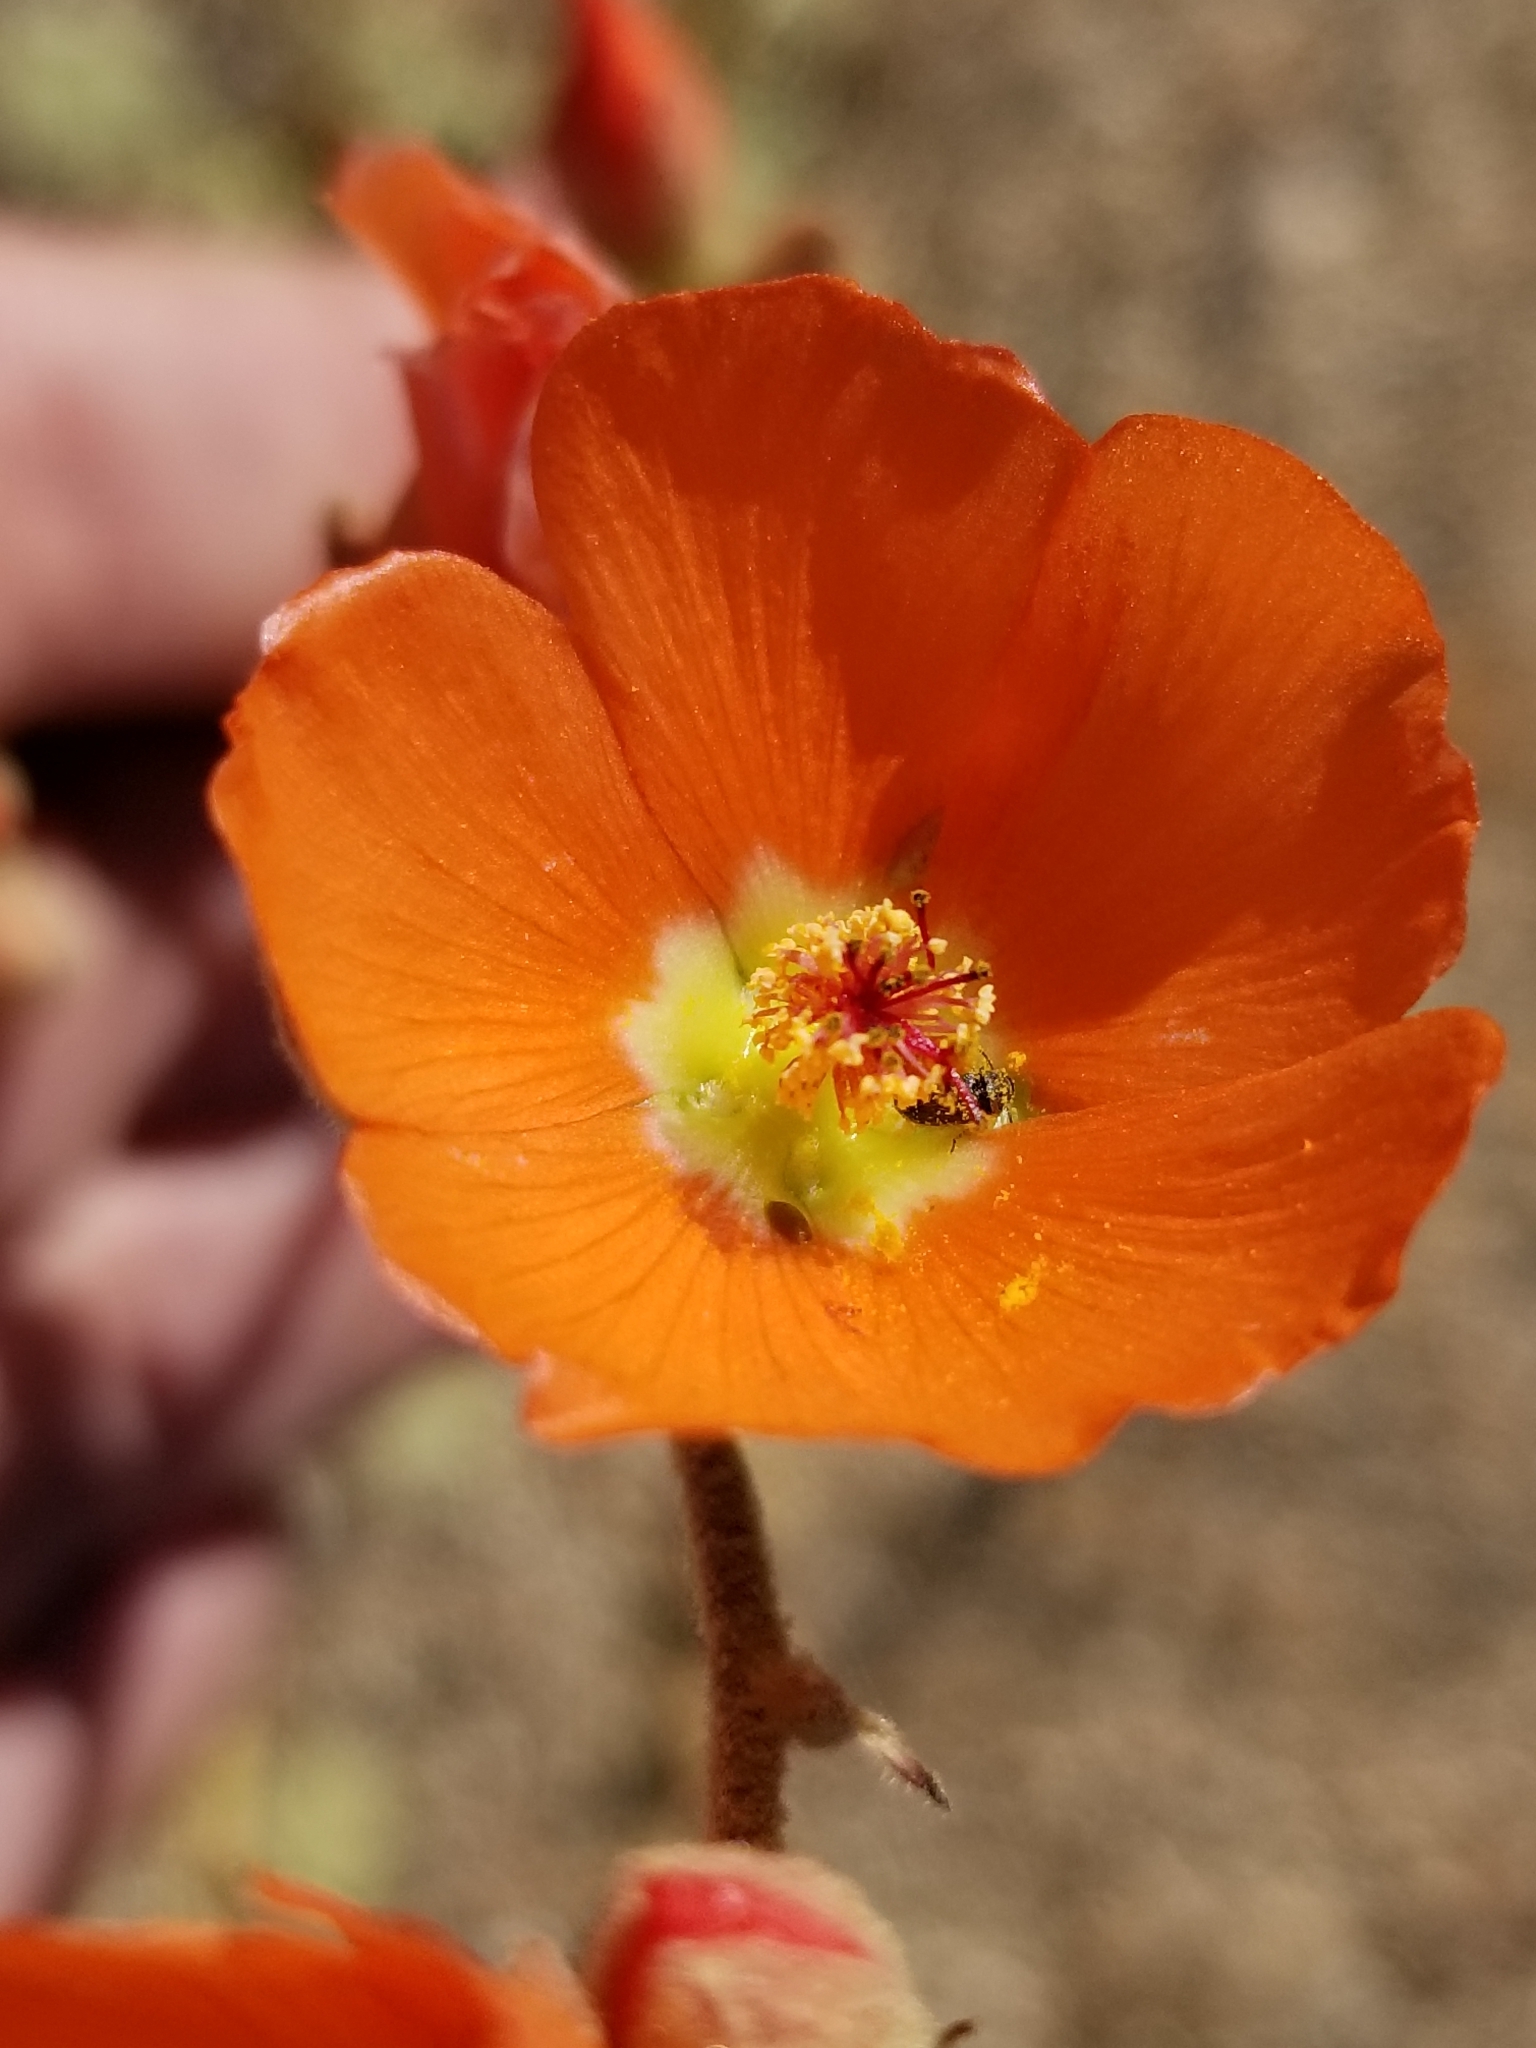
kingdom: Plantae
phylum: Tracheophyta
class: Magnoliopsida
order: Malvales
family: Malvaceae
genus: Sphaeralcea
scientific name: Sphaeralcea ambigua
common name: Apricot globe-mallow
